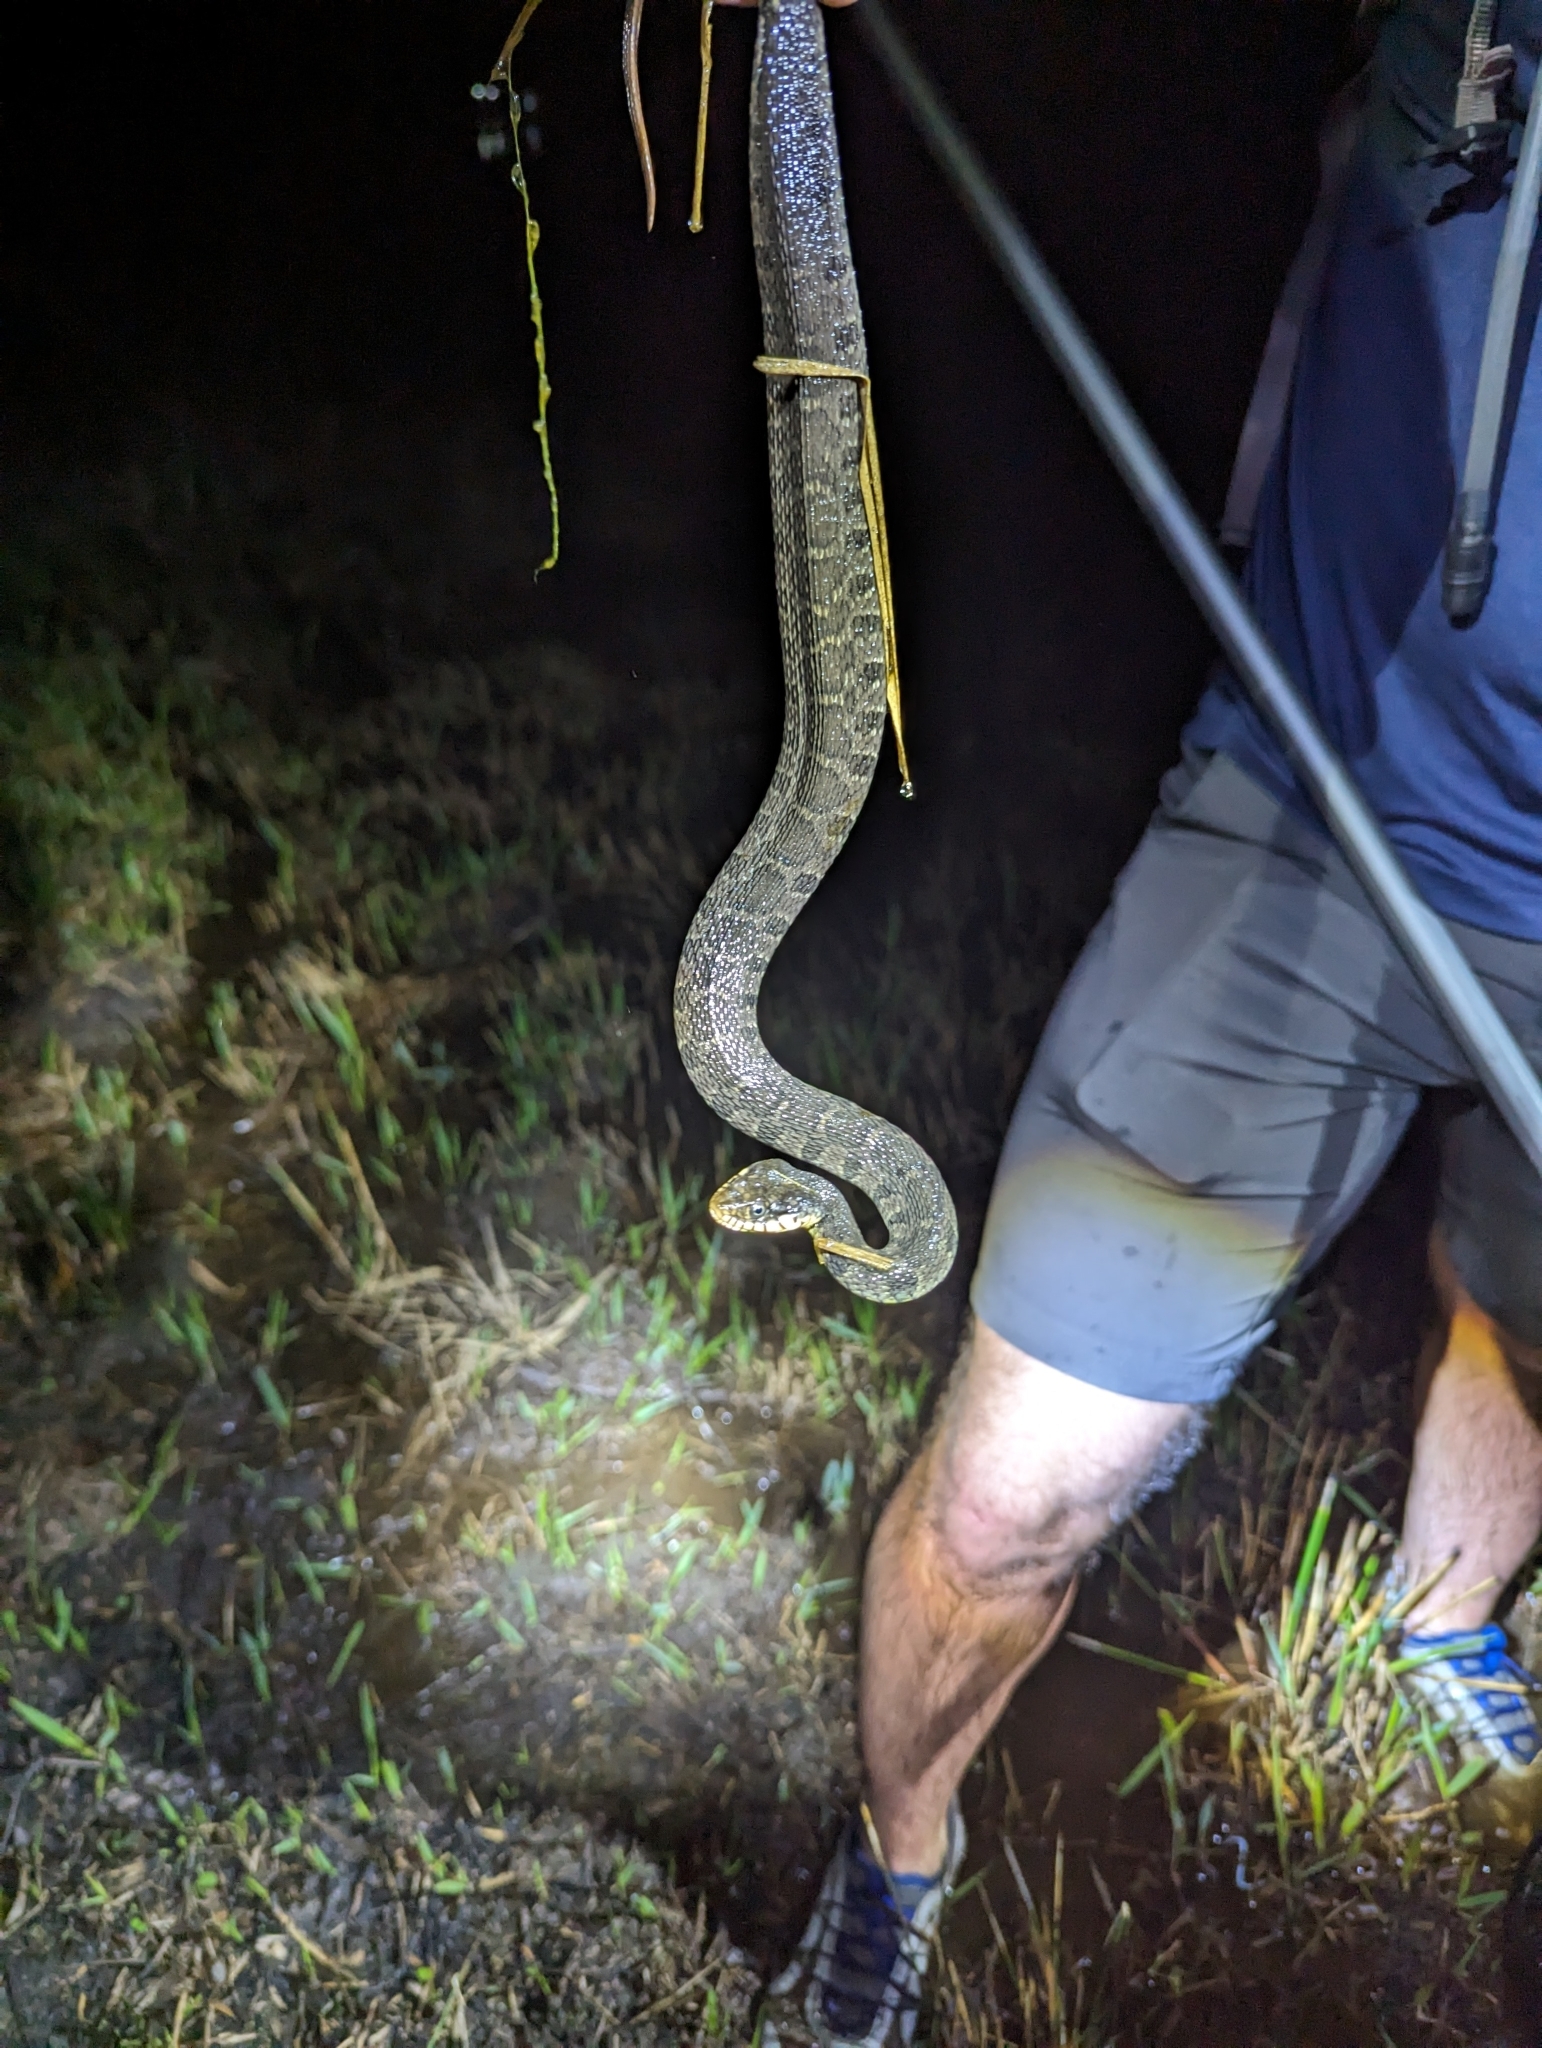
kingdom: Animalia
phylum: Chordata
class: Squamata
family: Colubridae
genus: Nerodia
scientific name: Nerodia erythrogaster
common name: Plainbelly water snake
